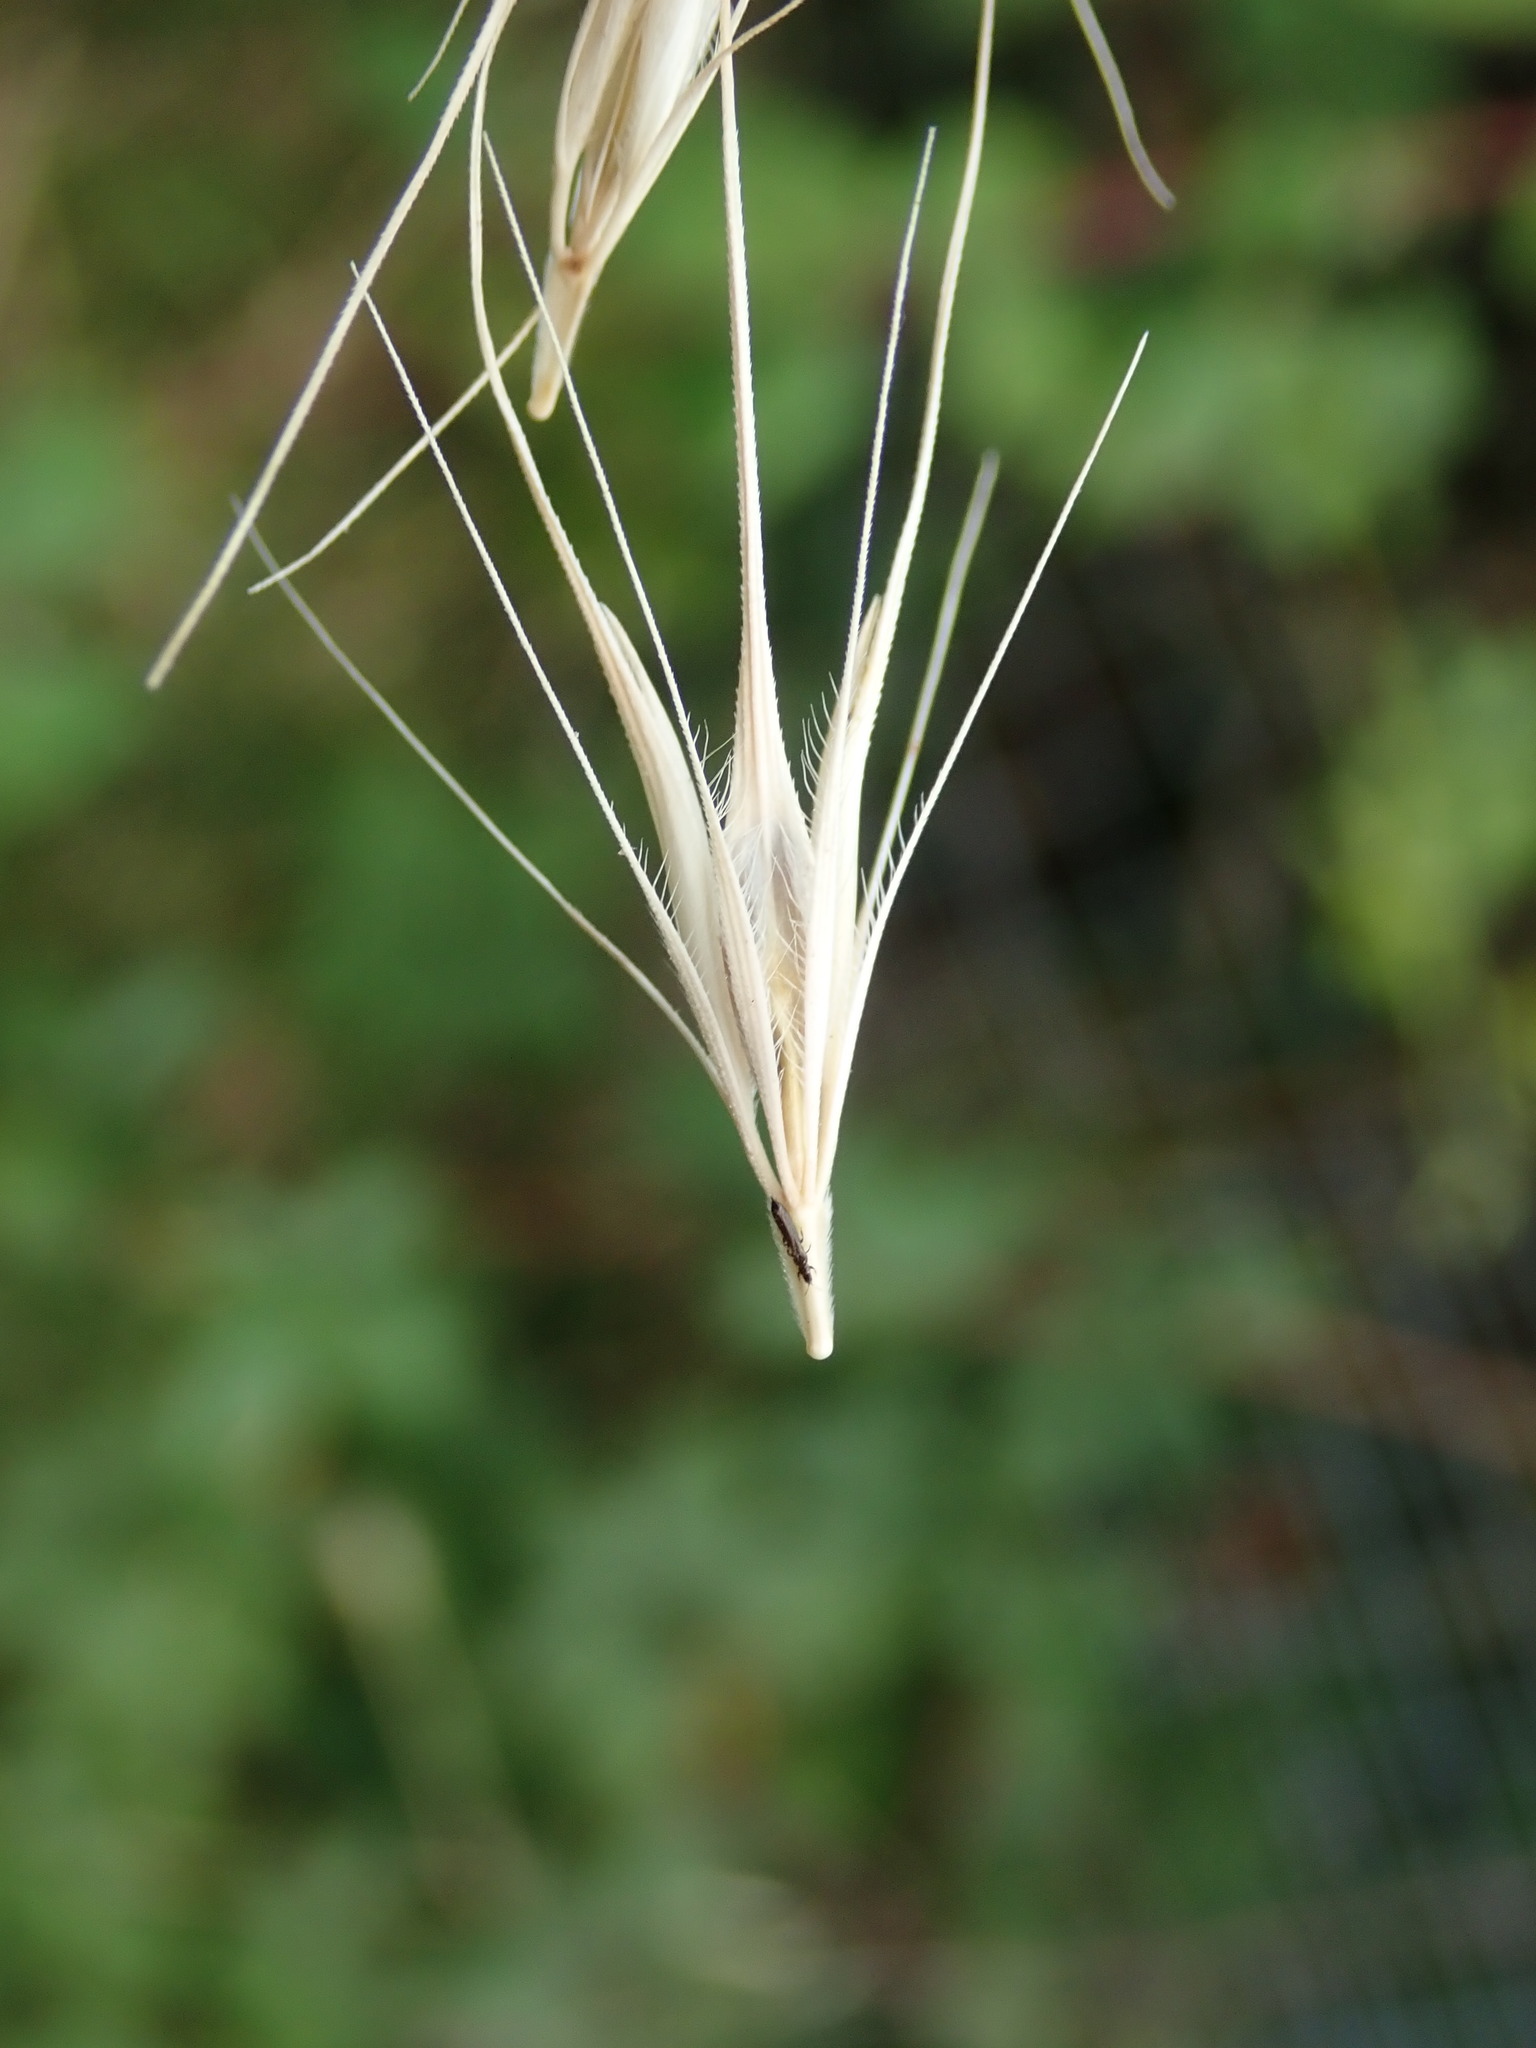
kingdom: Plantae
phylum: Tracheophyta
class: Liliopsida
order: Poales
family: Poaceae
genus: Hordeum
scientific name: Hordeum murinum
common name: Wall barley
